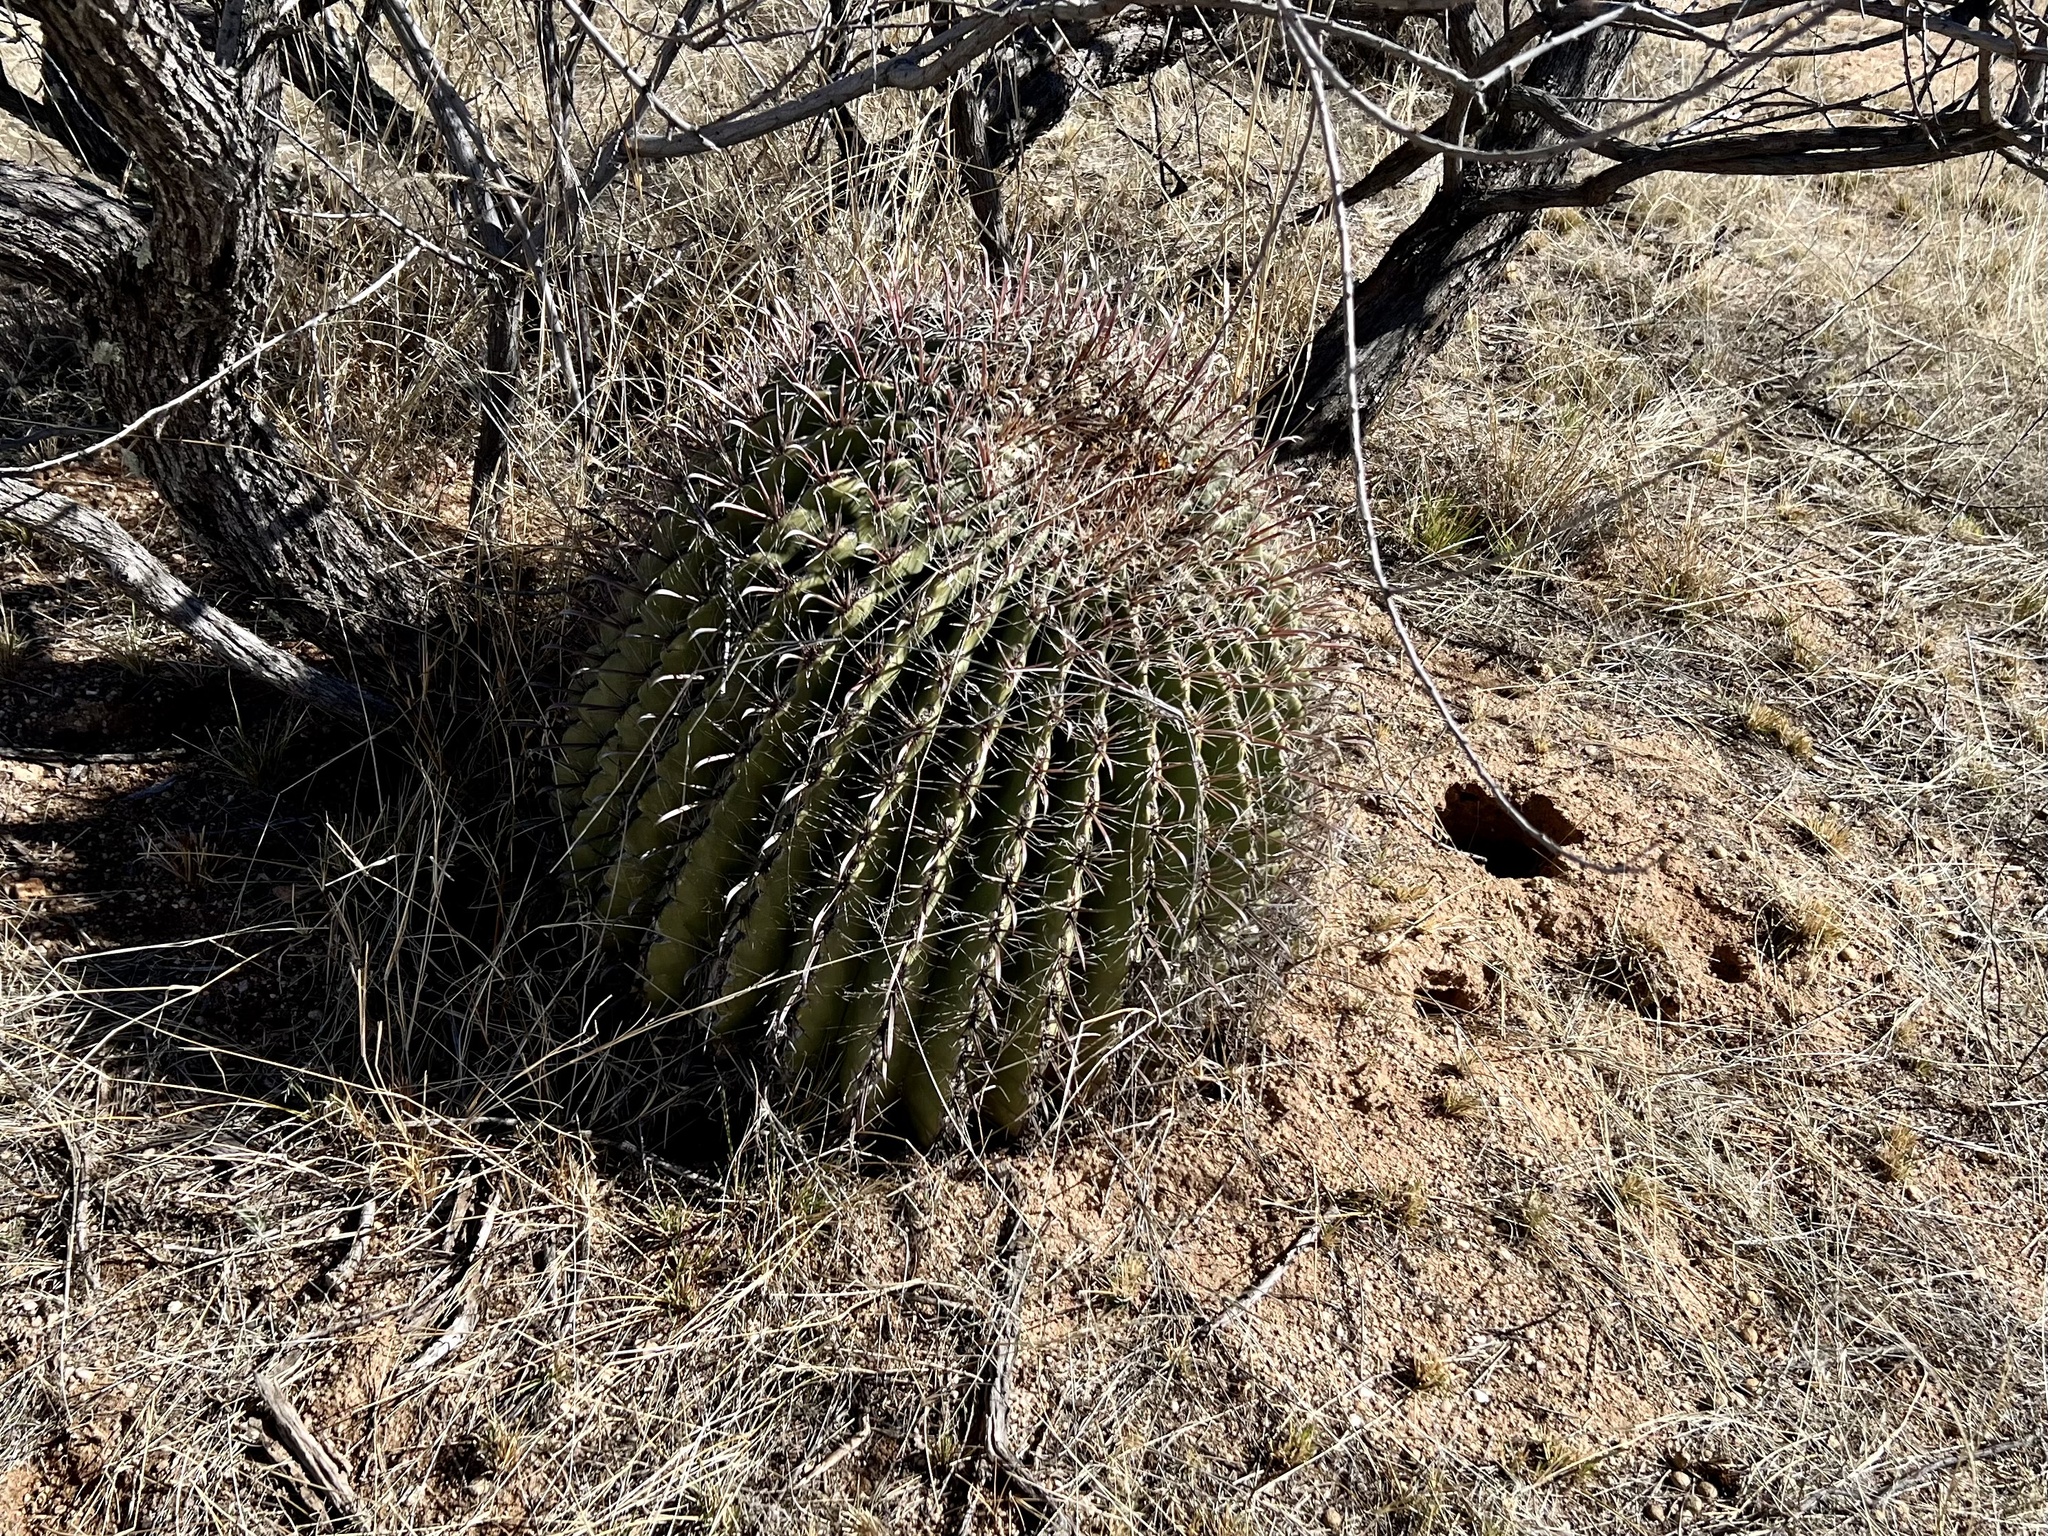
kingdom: Plantae
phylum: Tracheophyta
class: Magnoliopsida
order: Caryophyllales
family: Cactaceae
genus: Ferocactus
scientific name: Ferocactus wislizeni
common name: Candy barrel cactus
